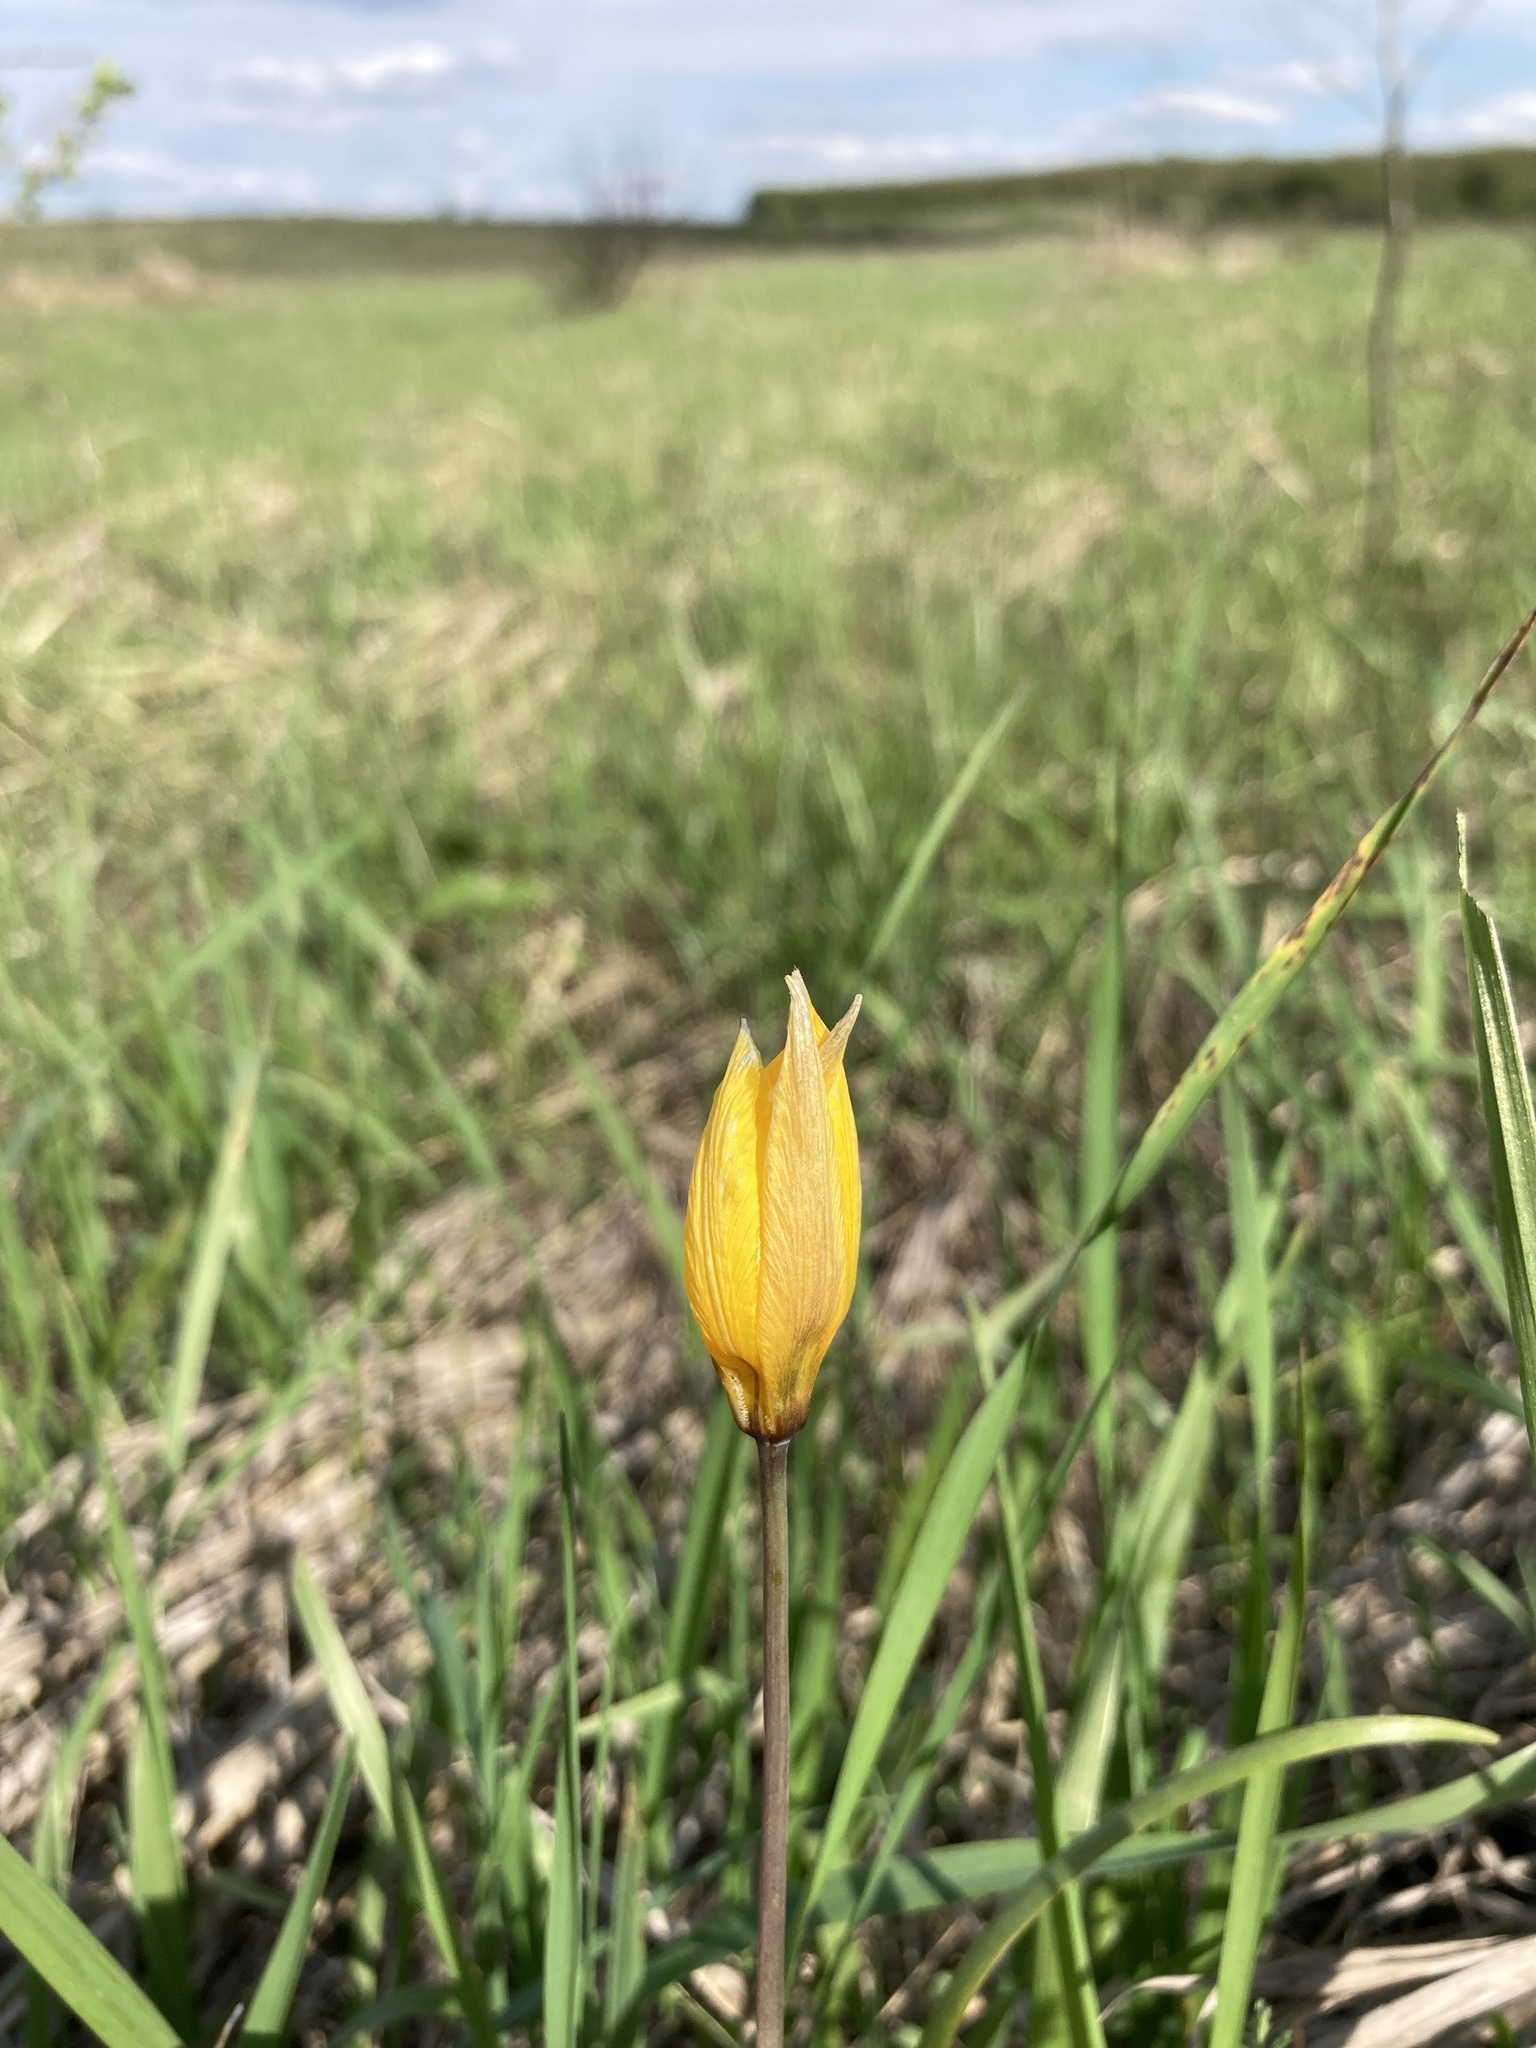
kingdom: Plantae
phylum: Tracheophyta
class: Liliopsida
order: Liliales
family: Liliaceae
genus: Tulipa
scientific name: Tulipa sylvestris
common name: Wild tulip
